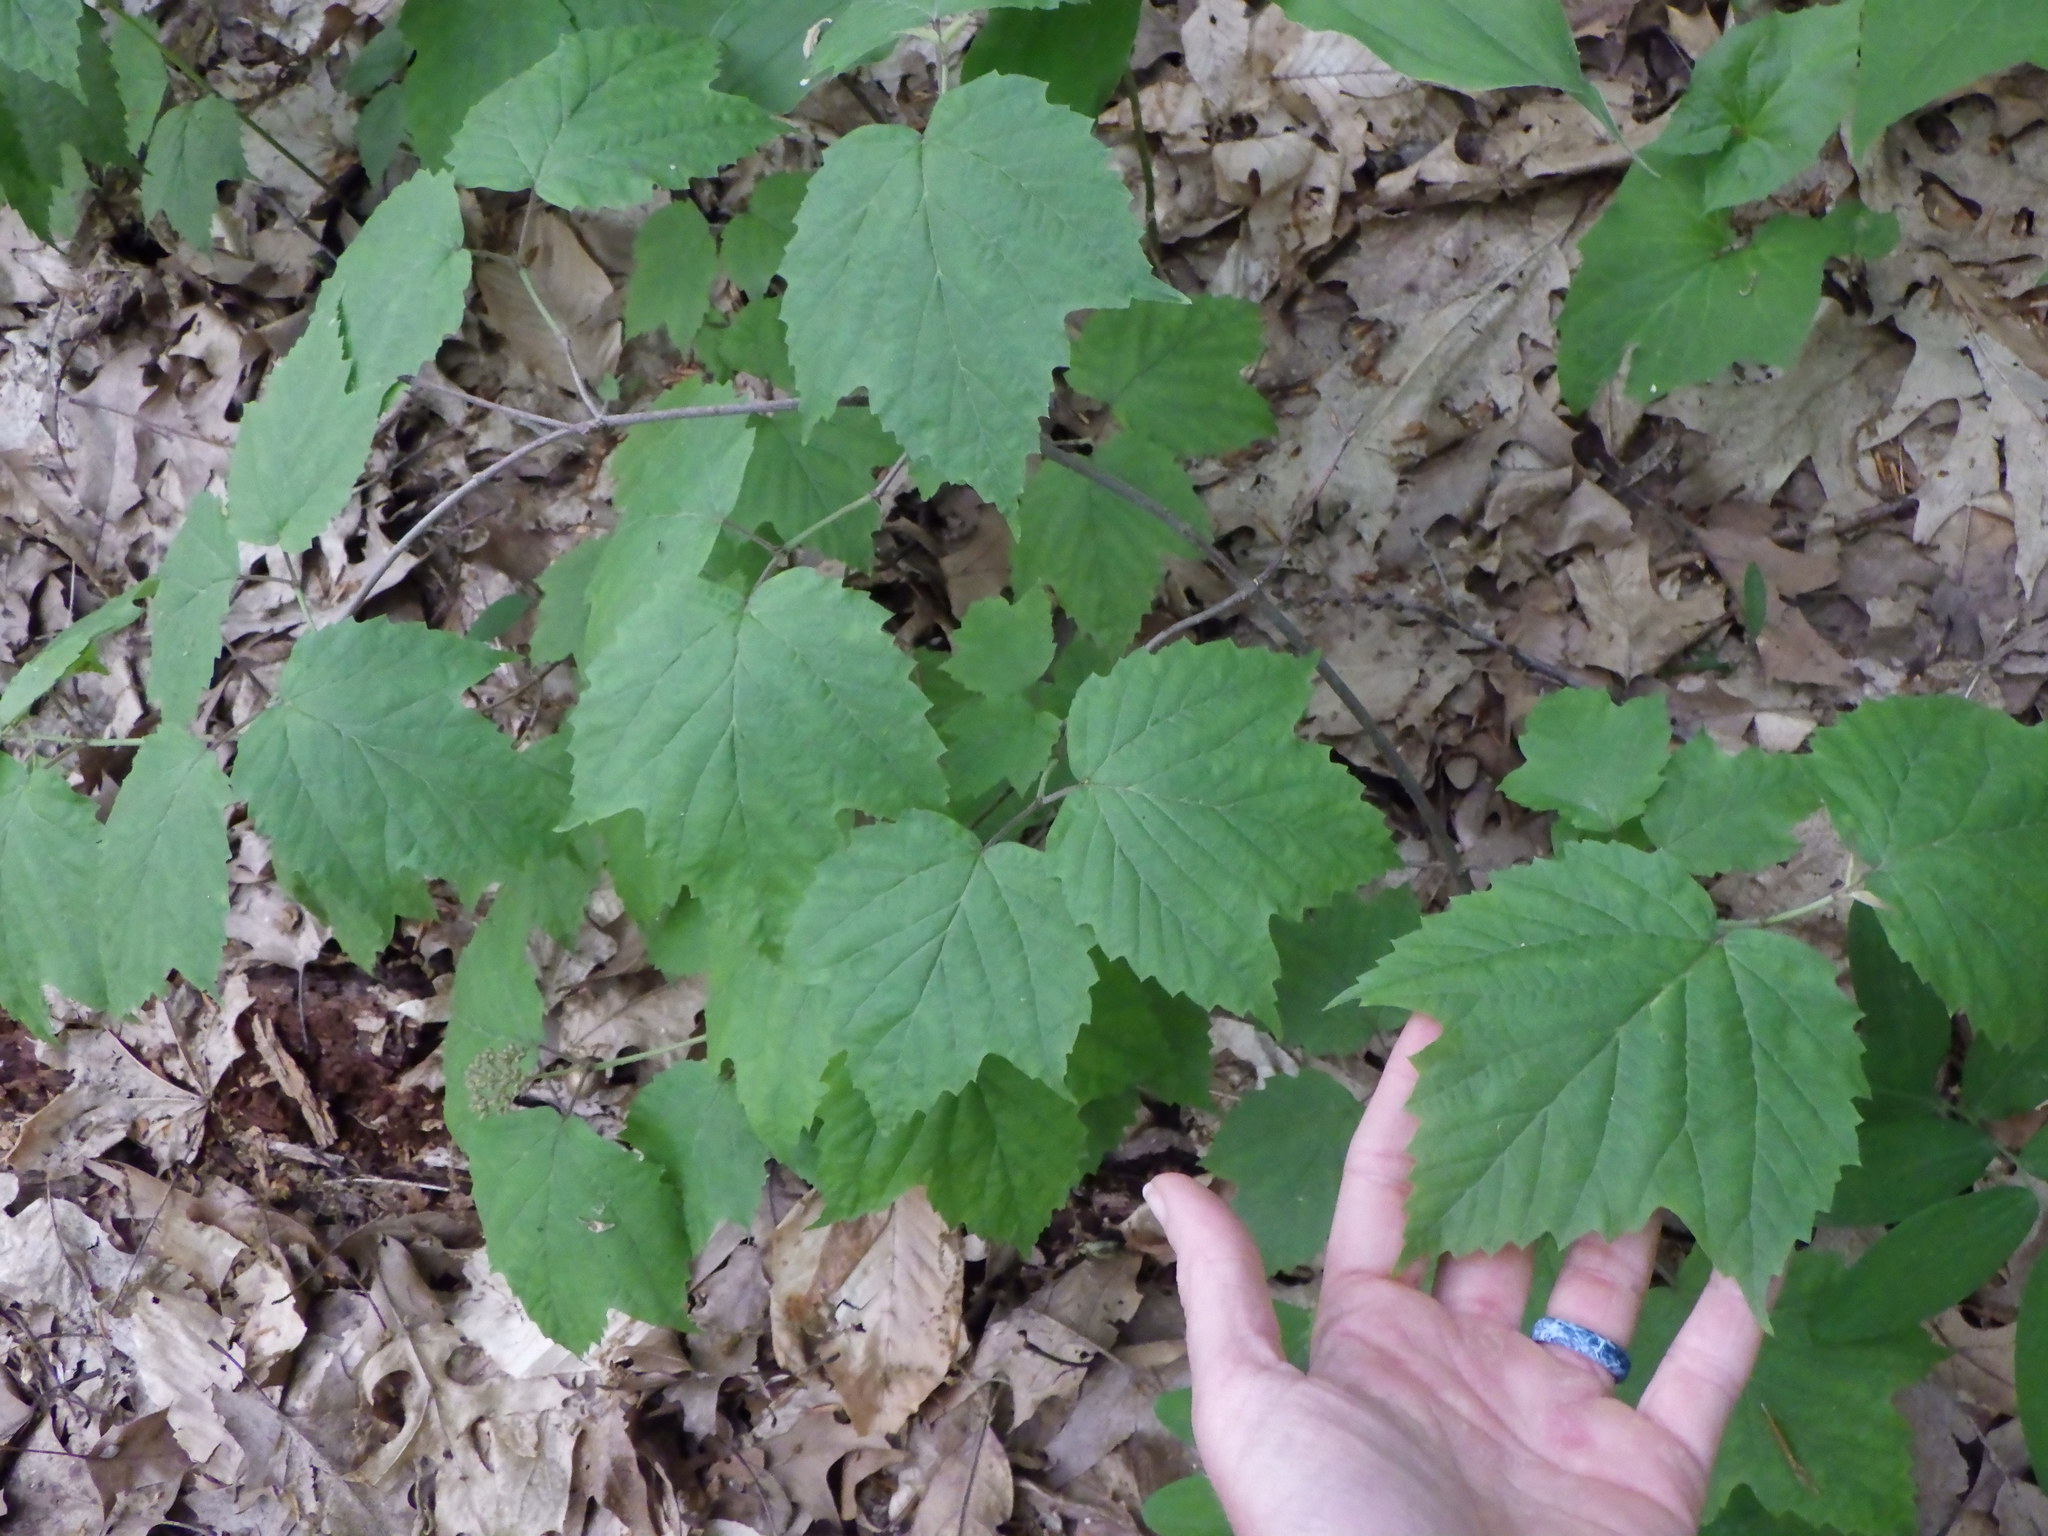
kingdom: Plantae
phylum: Tracheophyta
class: Magnoliopsida
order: Dipsacales
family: Viburnaceae
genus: Viburnum
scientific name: Viburnum acerifolium
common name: Dockmackie
